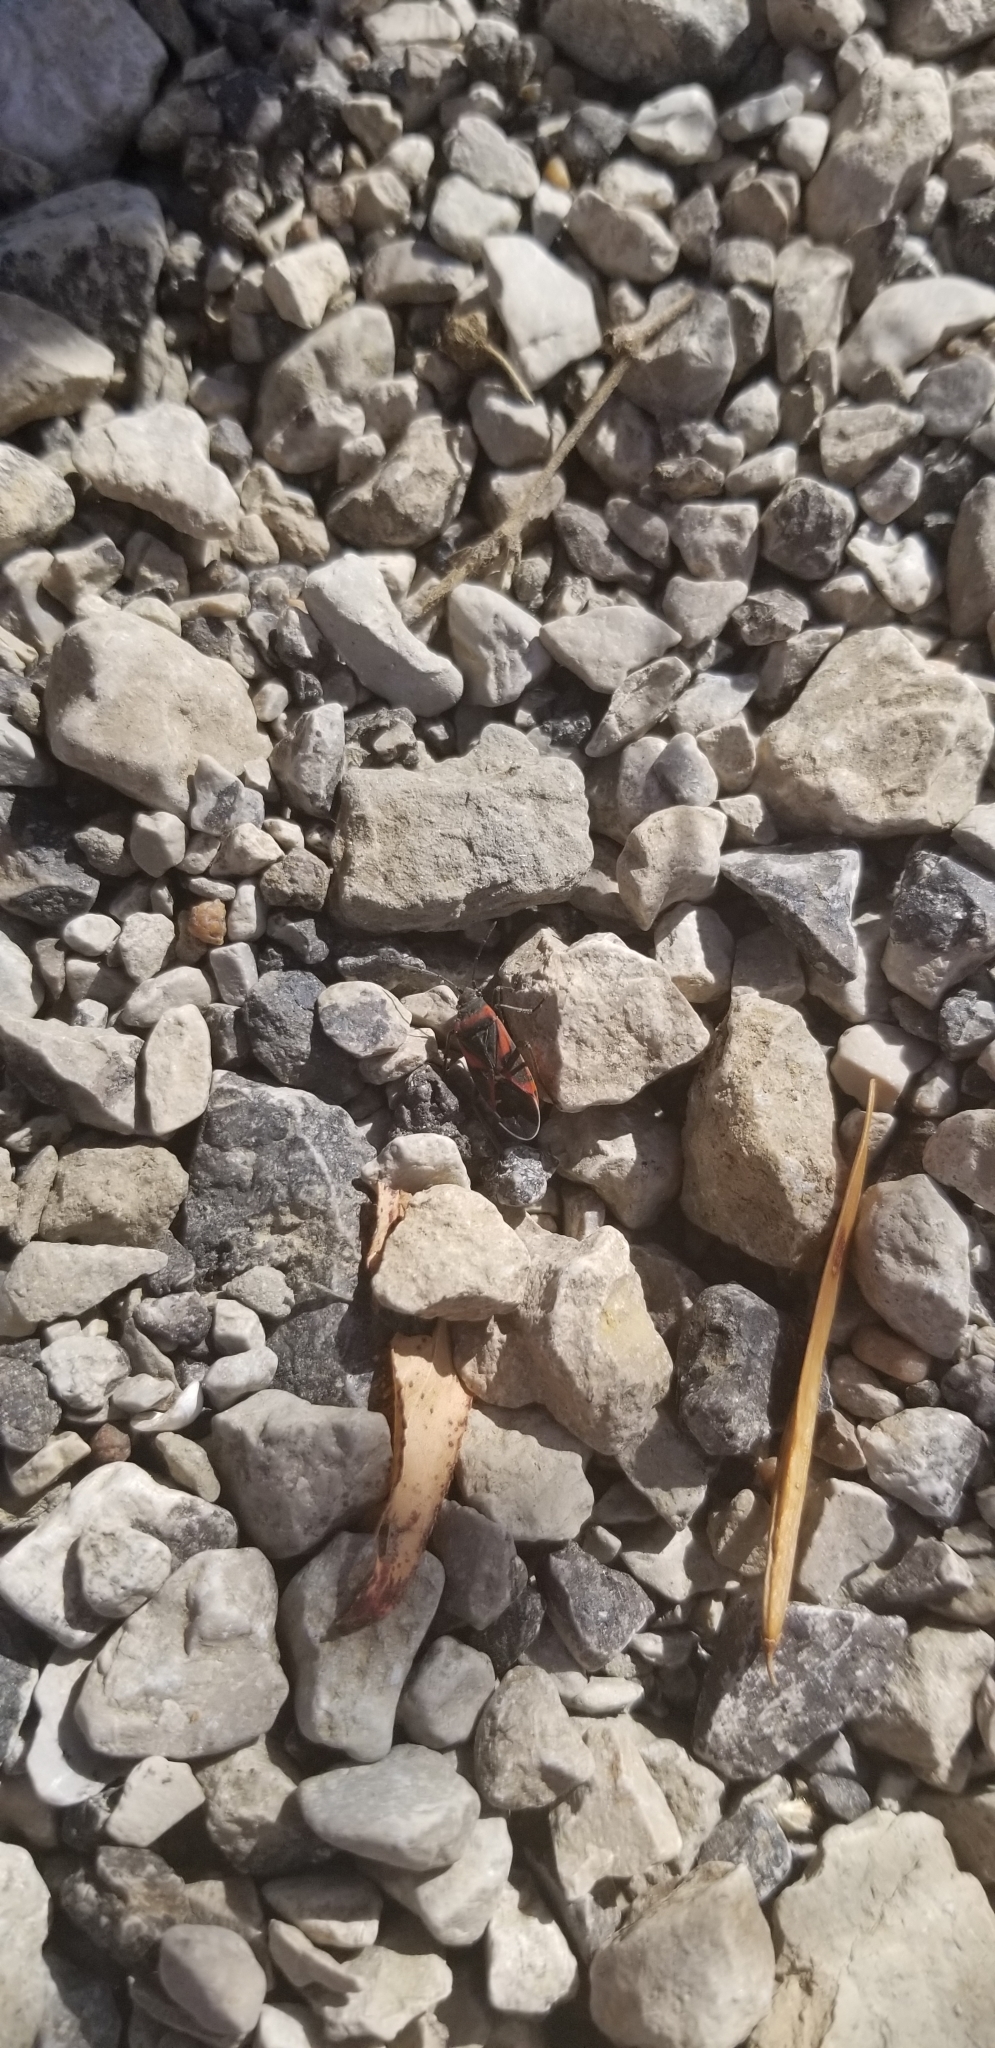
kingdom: Animalia
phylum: Arthropoda
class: Insecta
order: Hemiptera
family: Lygaeidae
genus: Lygaeus
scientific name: Lygaeus kalmii
